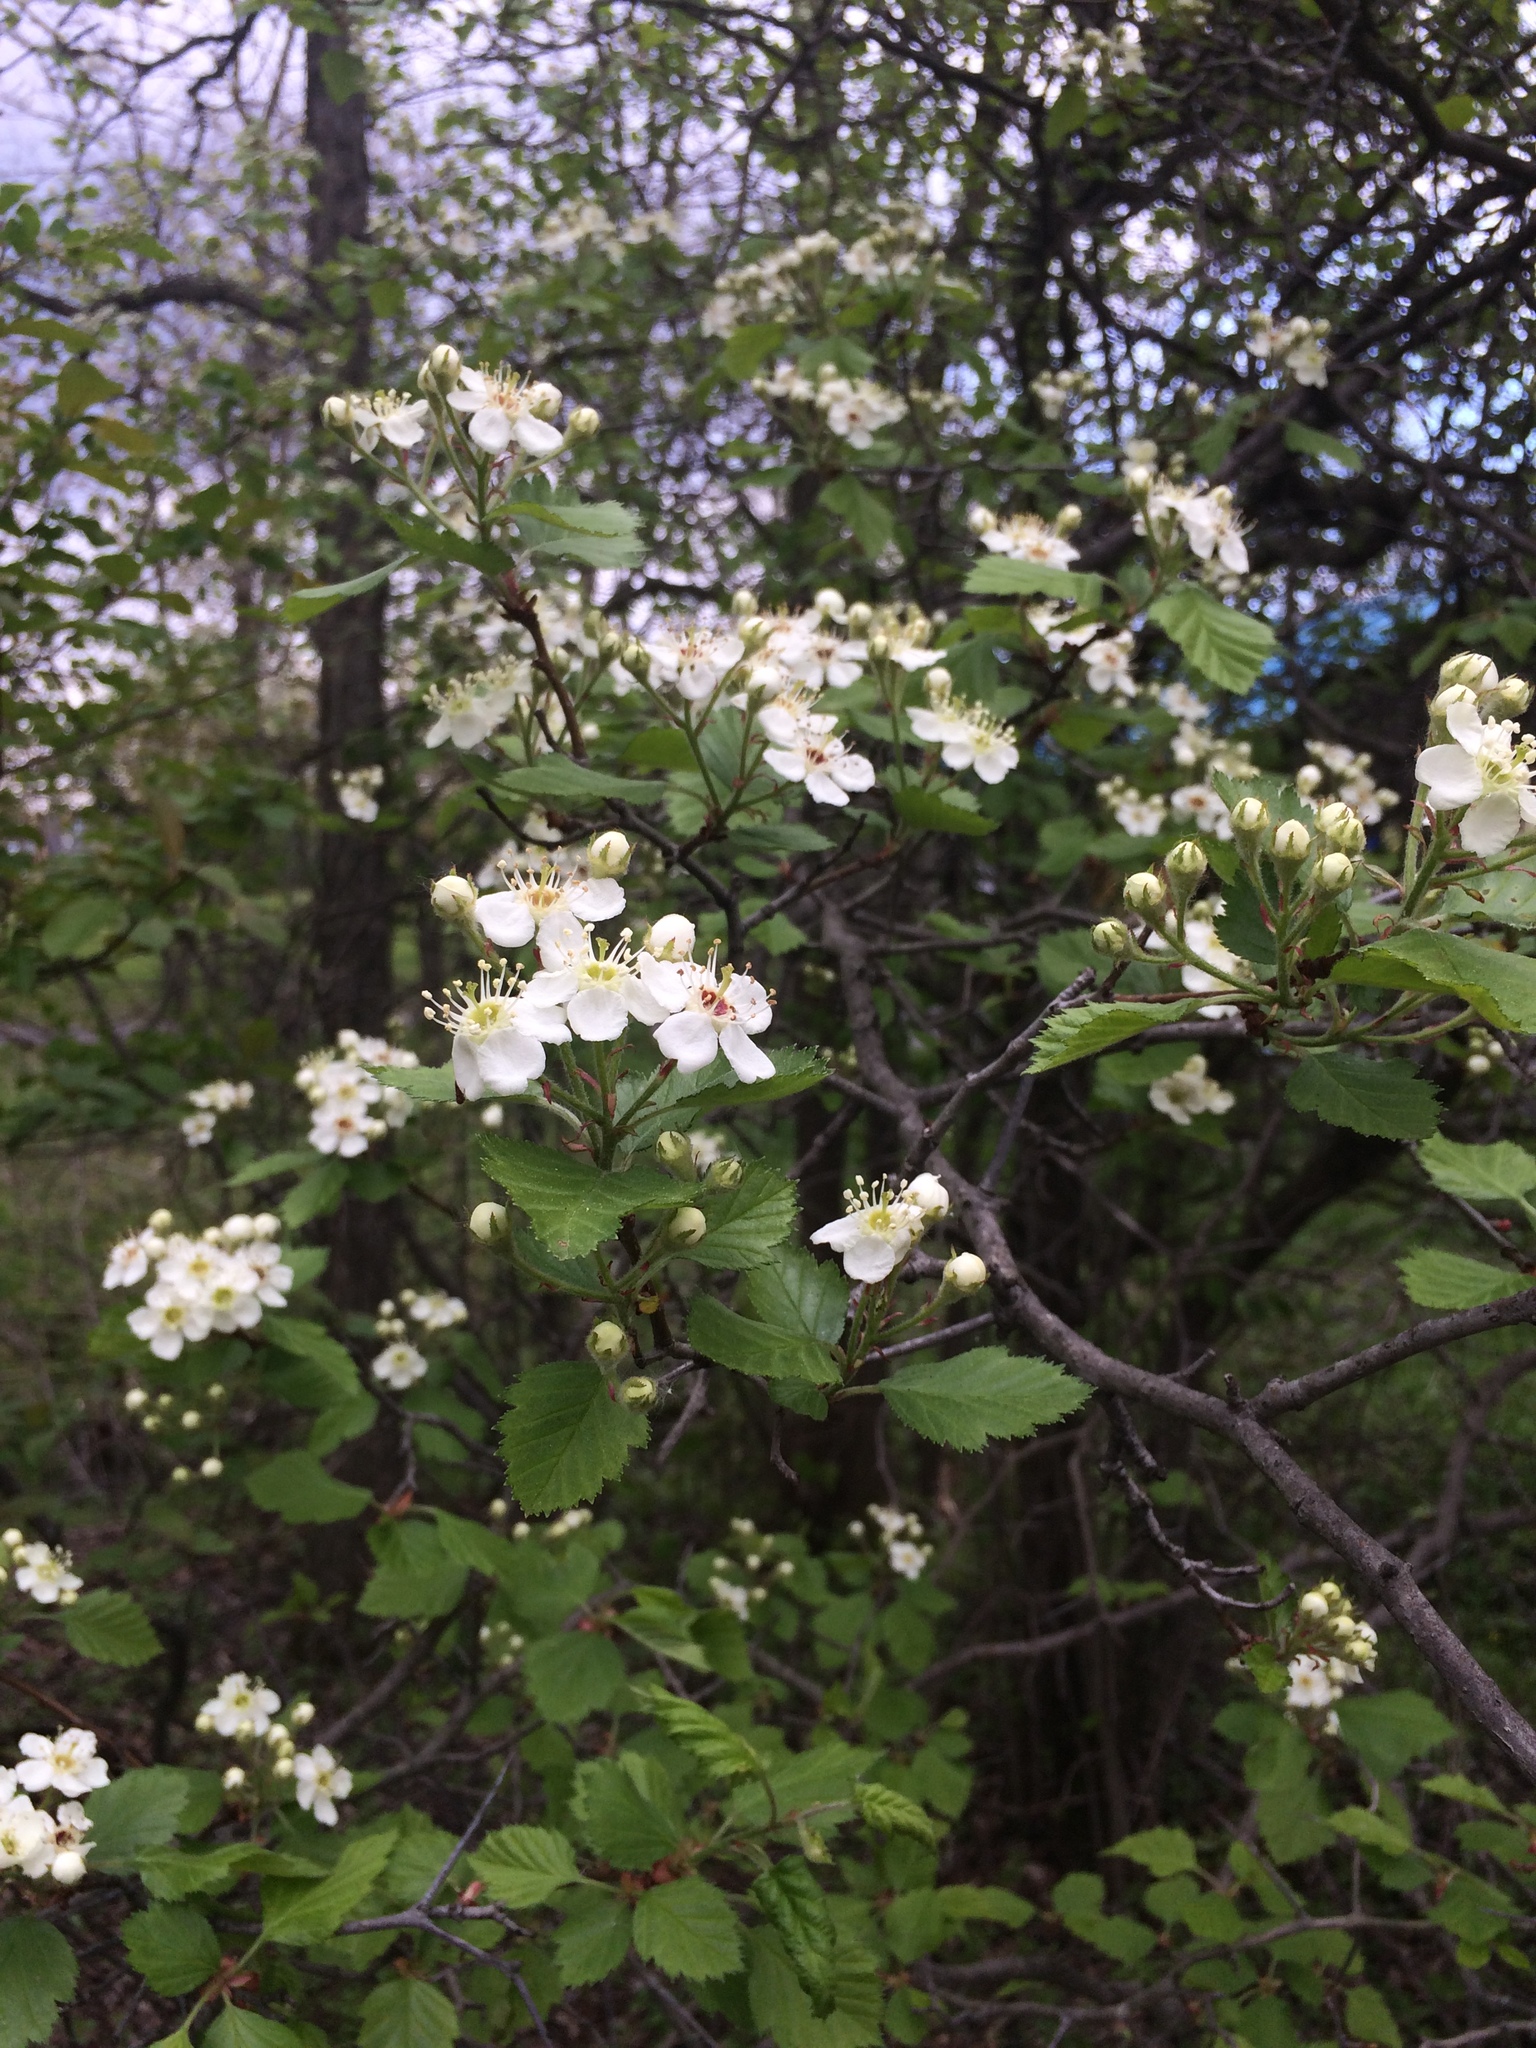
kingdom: Plantae
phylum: Tracheophyta
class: Magnoliopsida
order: Rosales
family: Rosaceae
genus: Crataegus
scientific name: Crataegus submollis
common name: Hairy cockspurthorn
